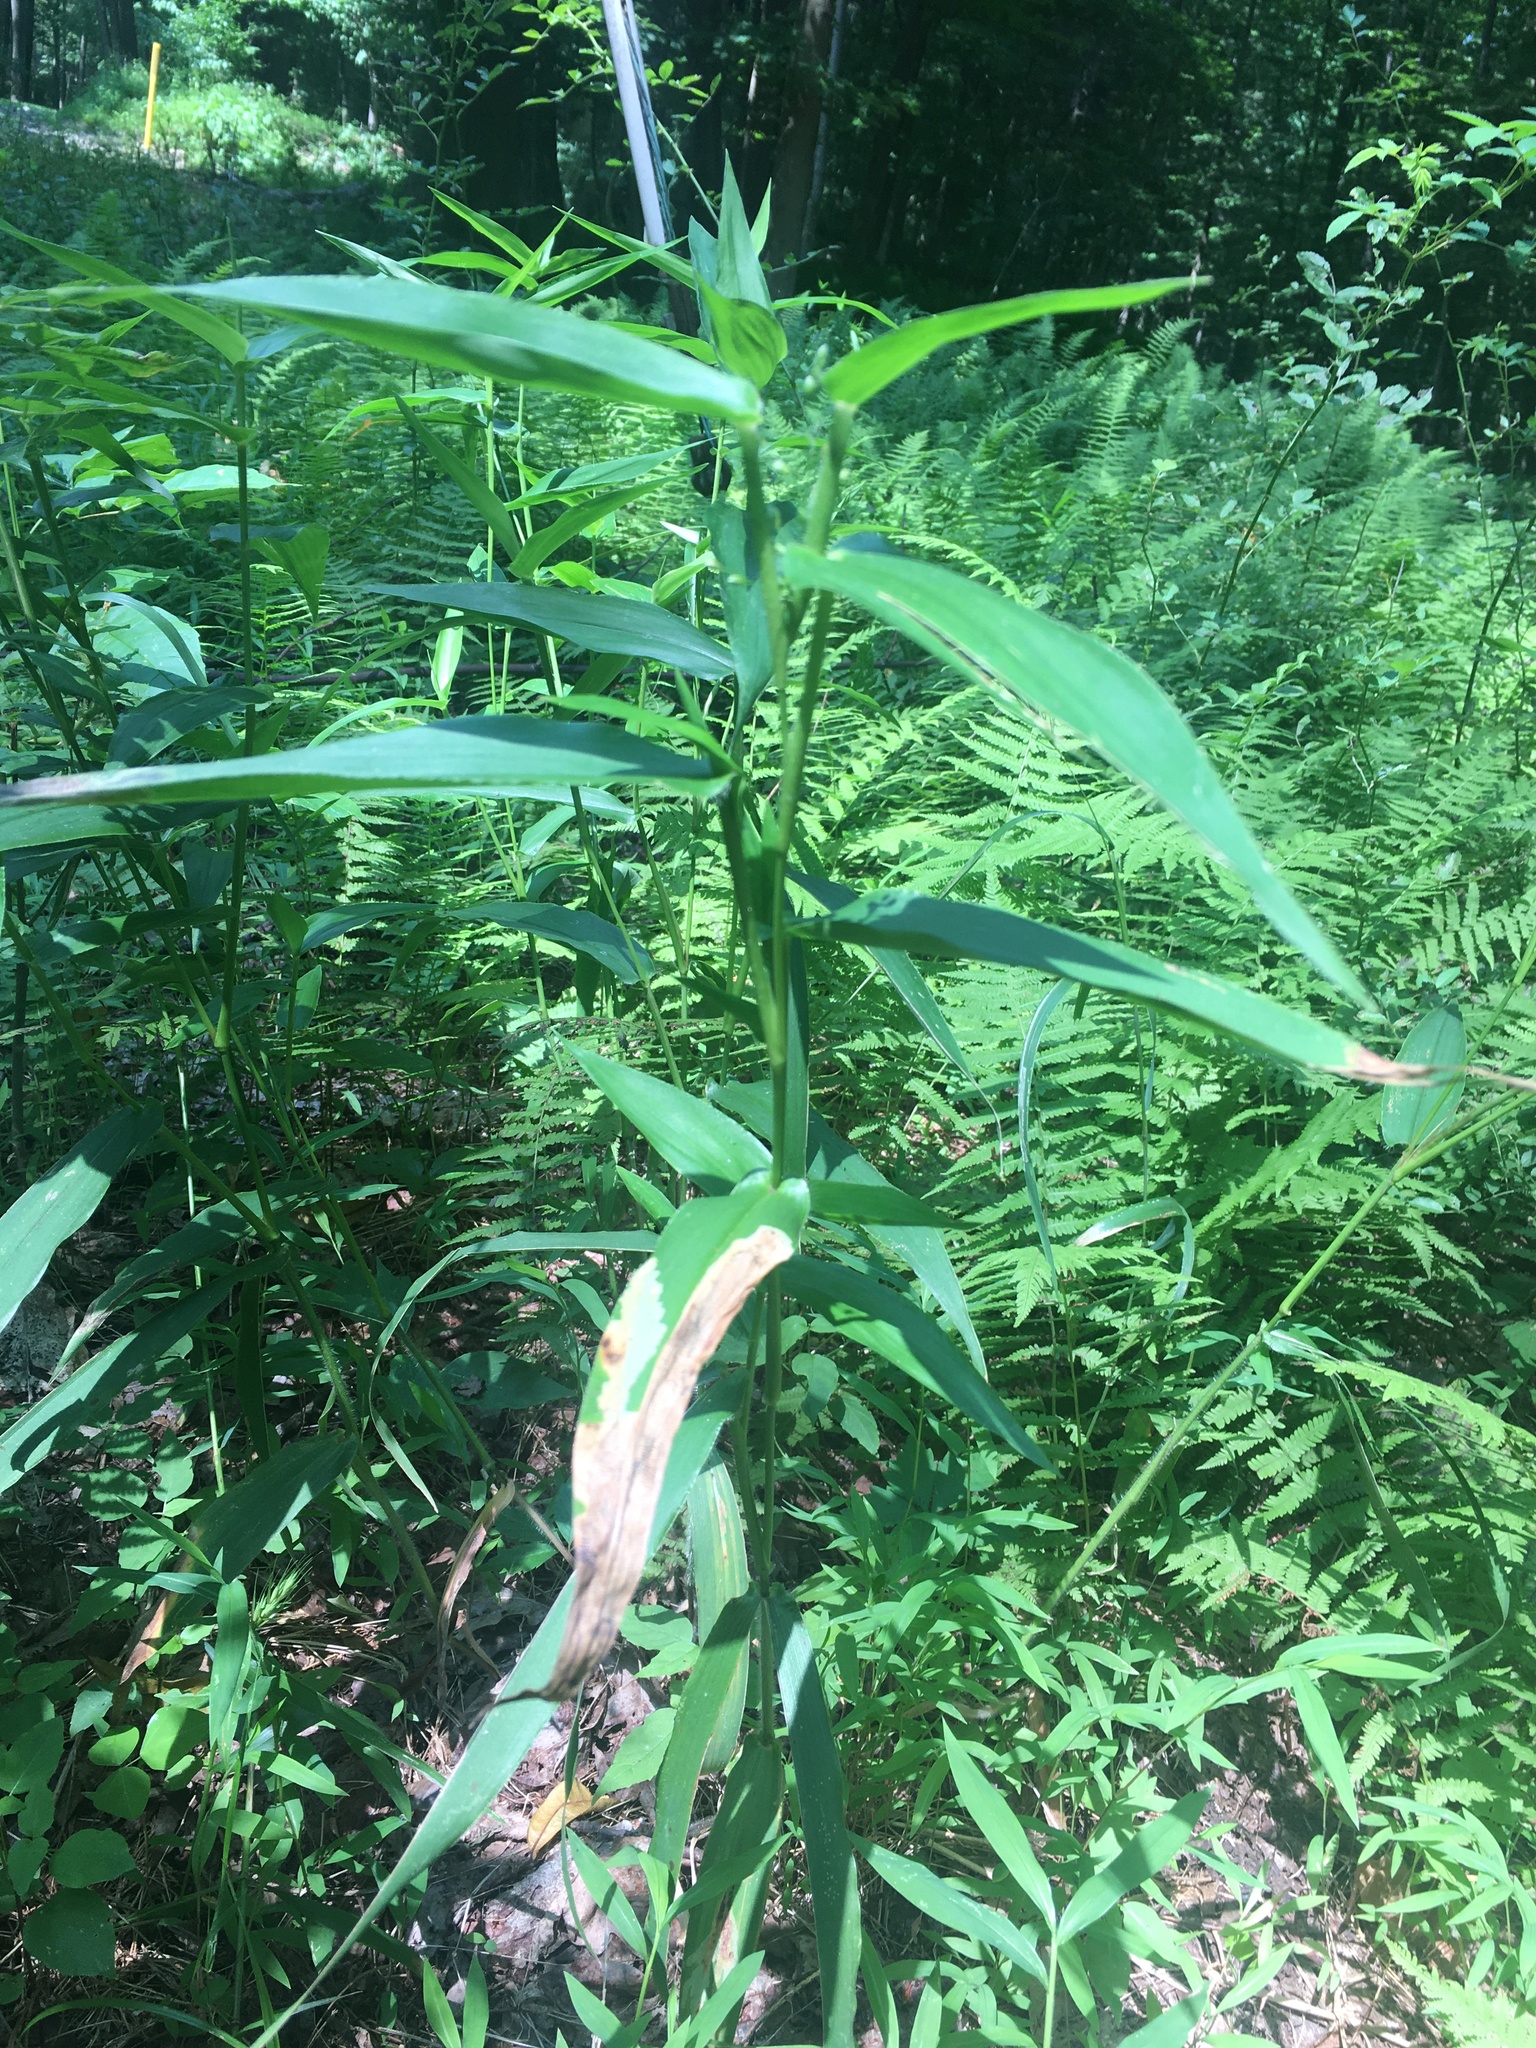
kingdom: Plantae
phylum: Tracheophyta
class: Liliopsida
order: Poales
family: Poaceae
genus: Dichanthelium
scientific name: Dichanthelium clandestinum
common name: Deer-tongue grass
